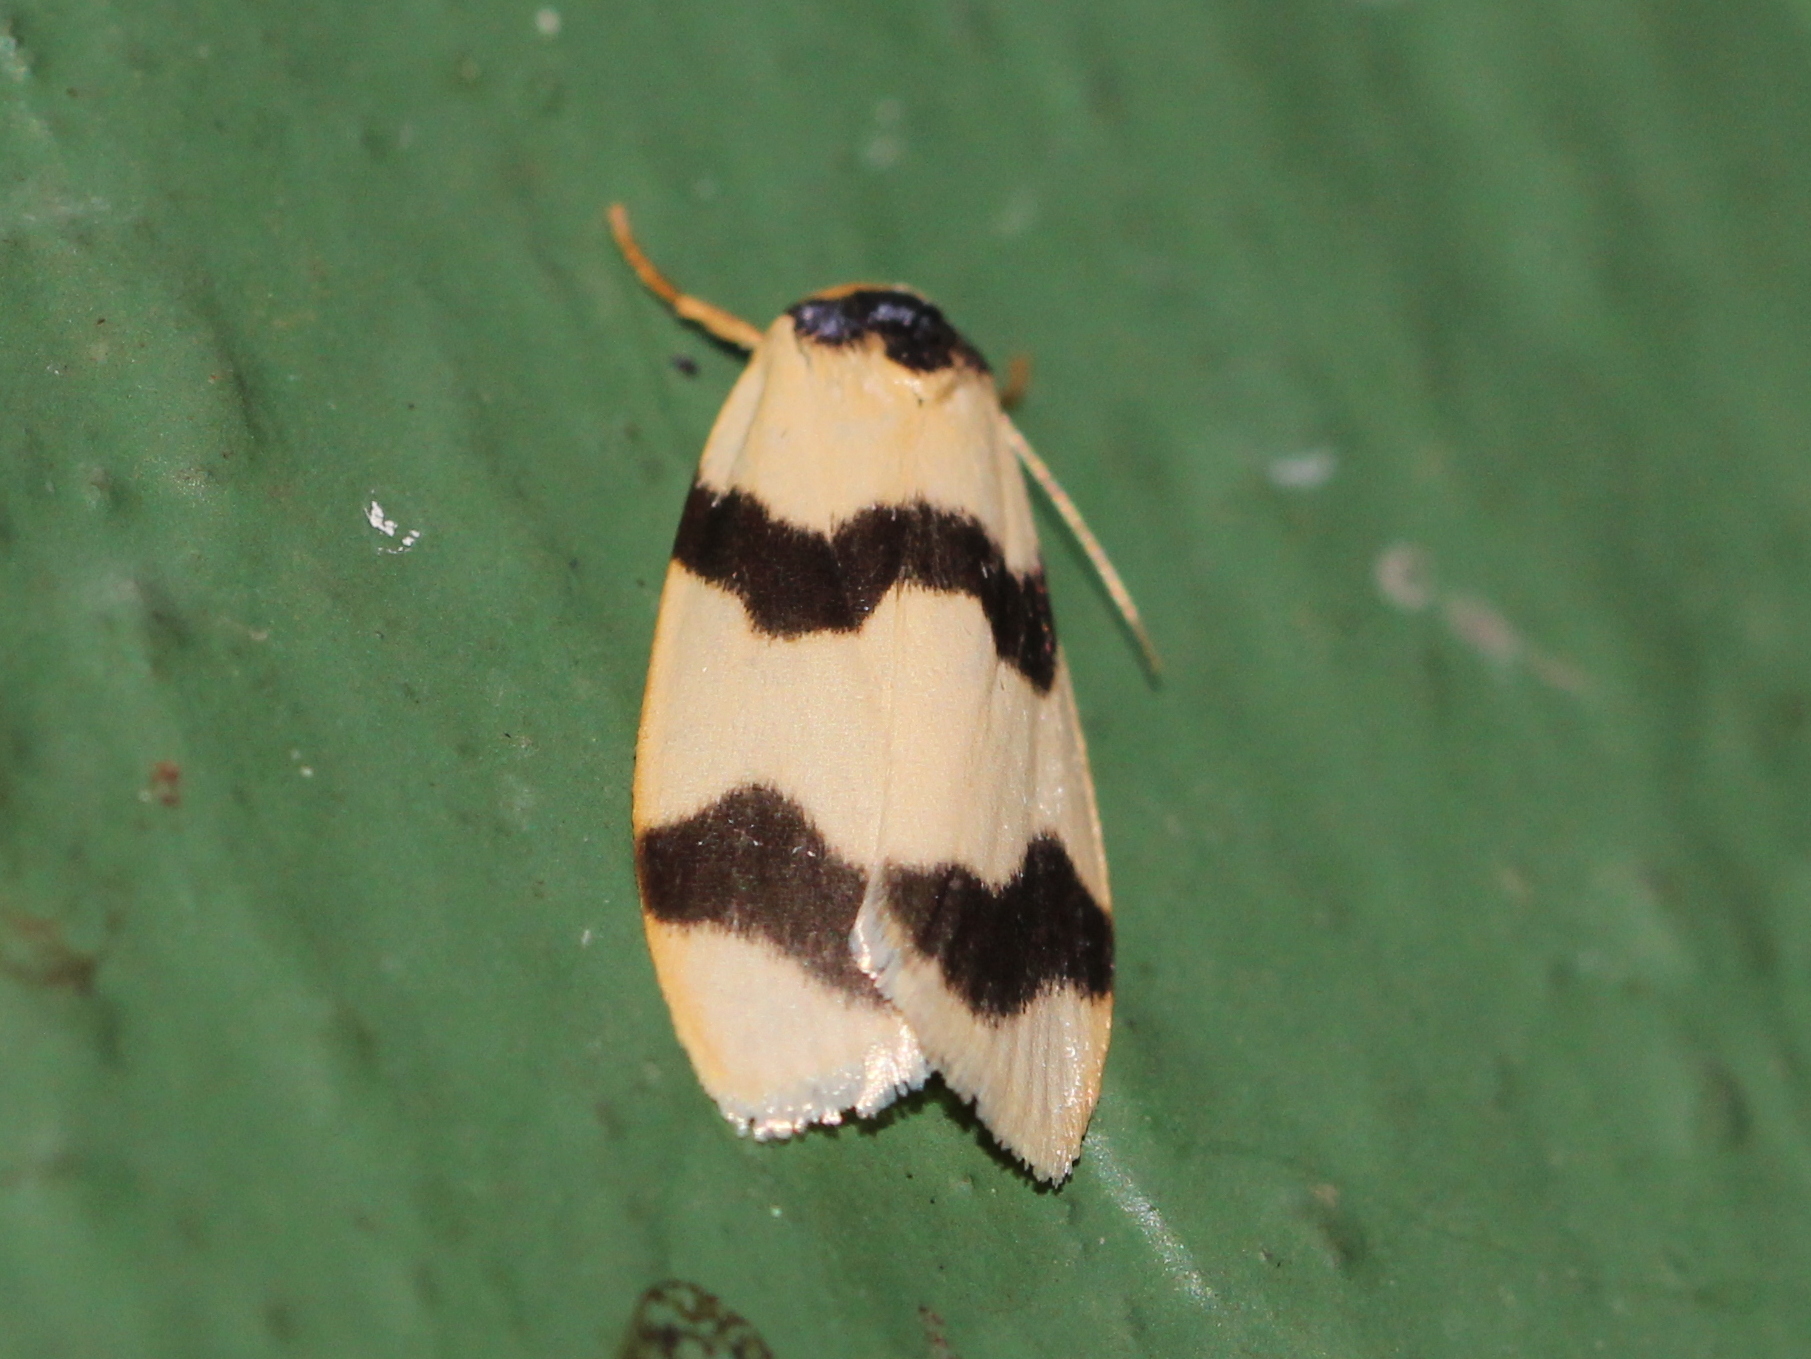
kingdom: Animalia
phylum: Arthropoda
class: Insecta
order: Lepidoptera
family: Erebidae
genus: Padenia
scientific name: Padenia transversa
